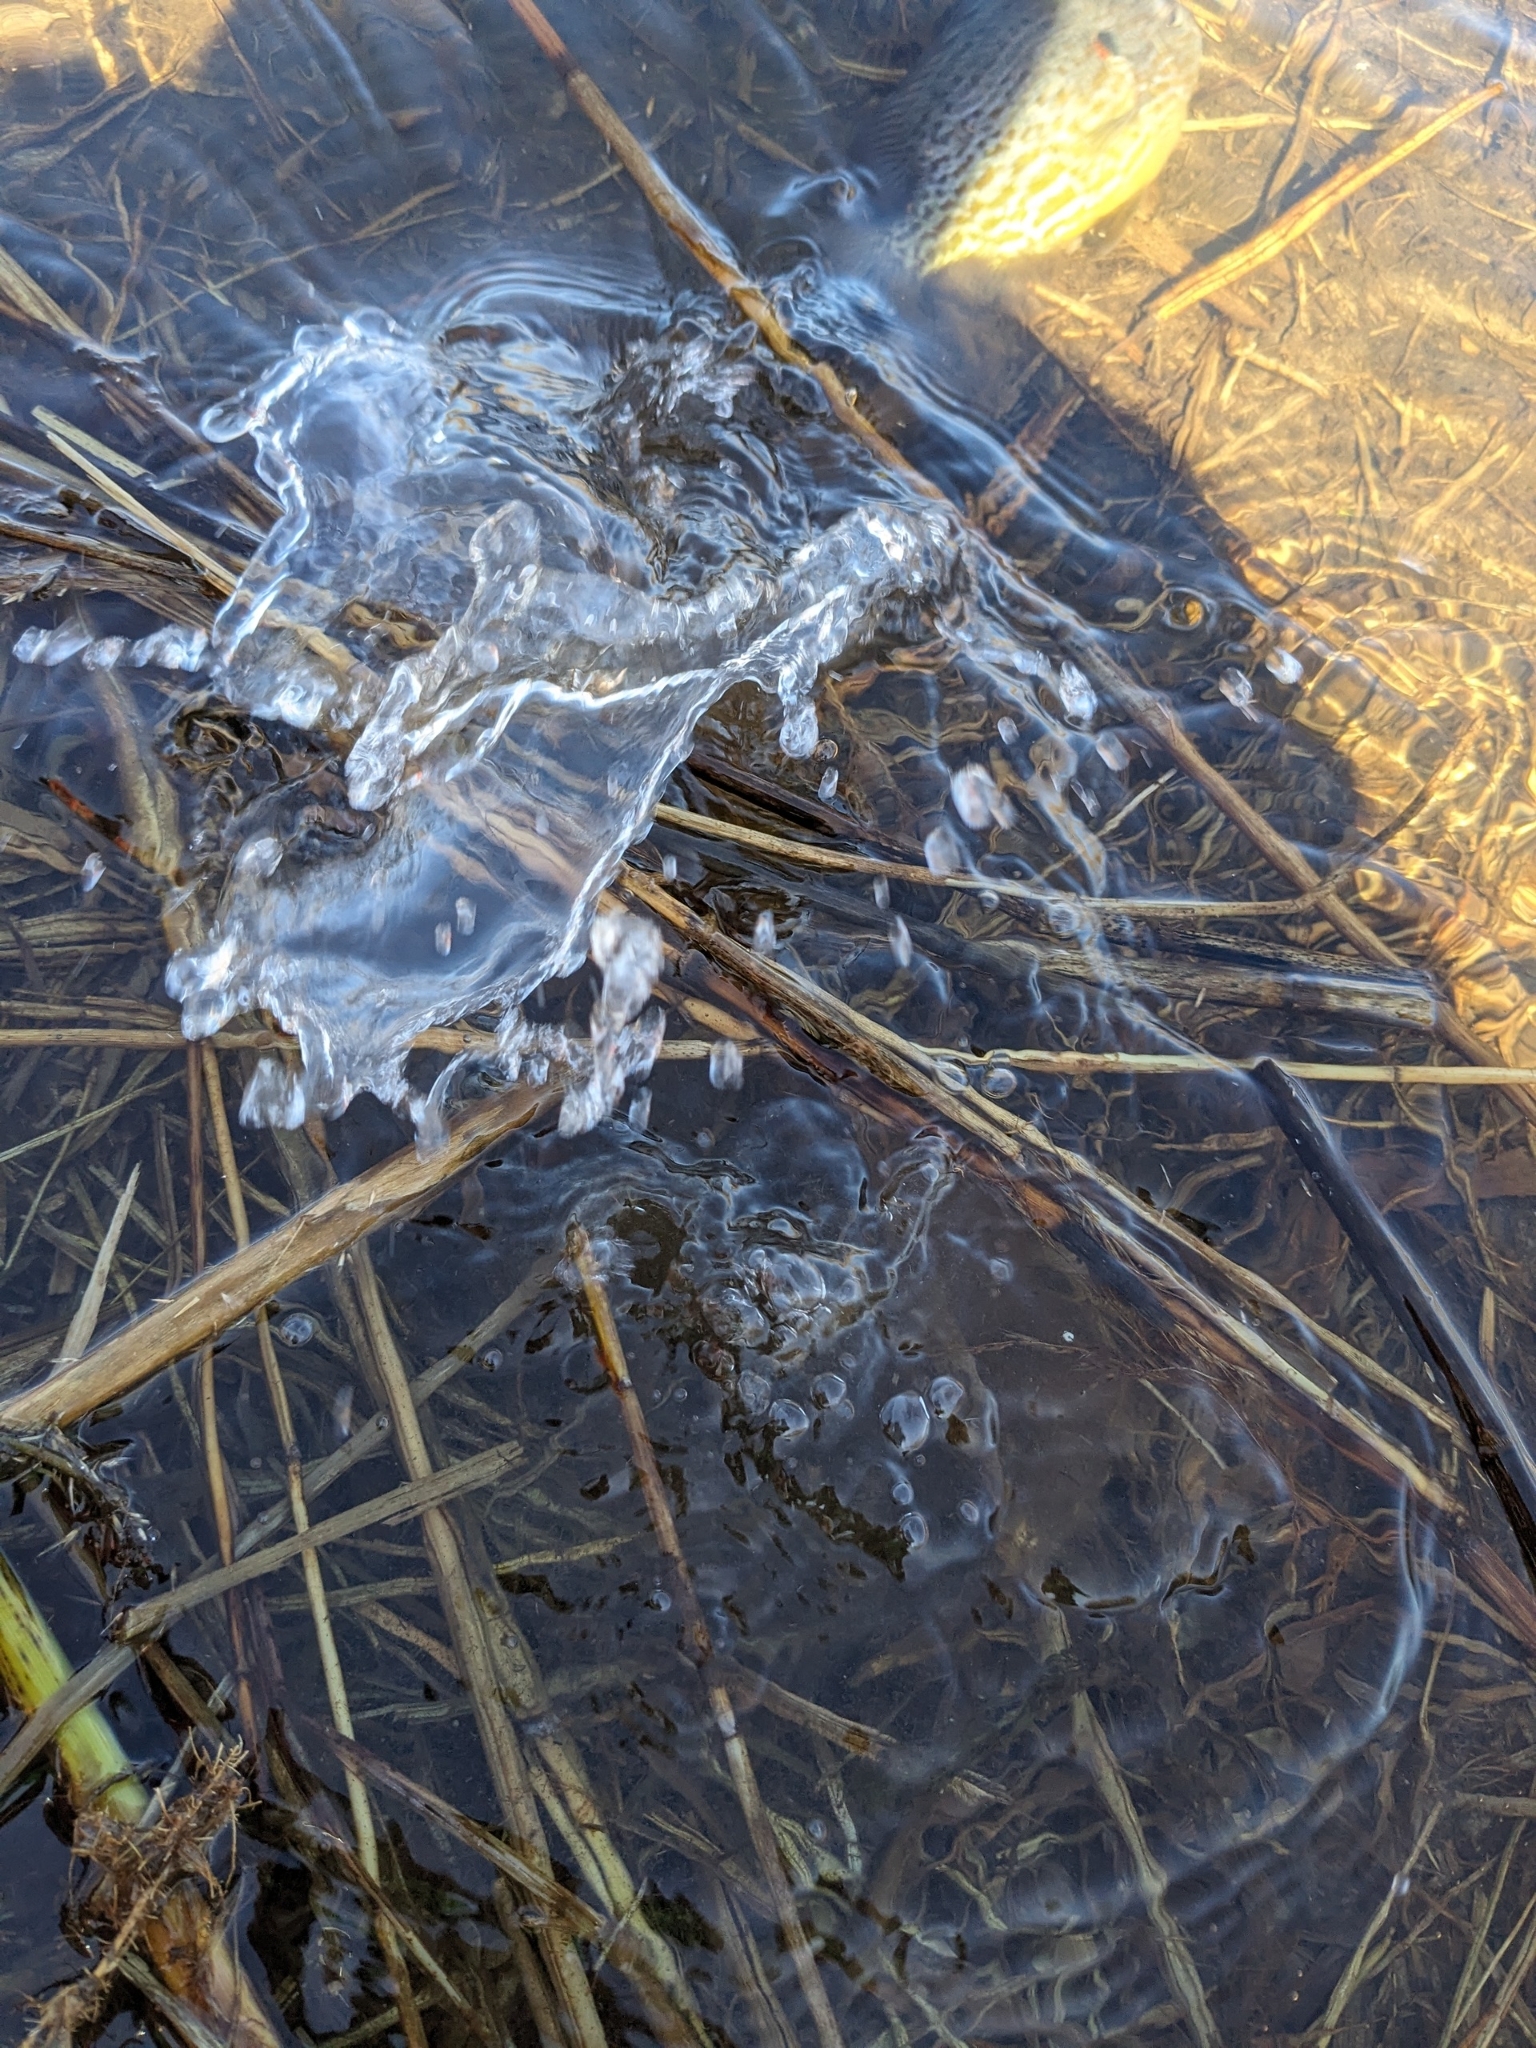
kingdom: Animalia
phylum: Chordata
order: Perciformes
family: Centrarchidae
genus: Lepomis
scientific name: Lepomis gibbosus
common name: Pumpkinseed
